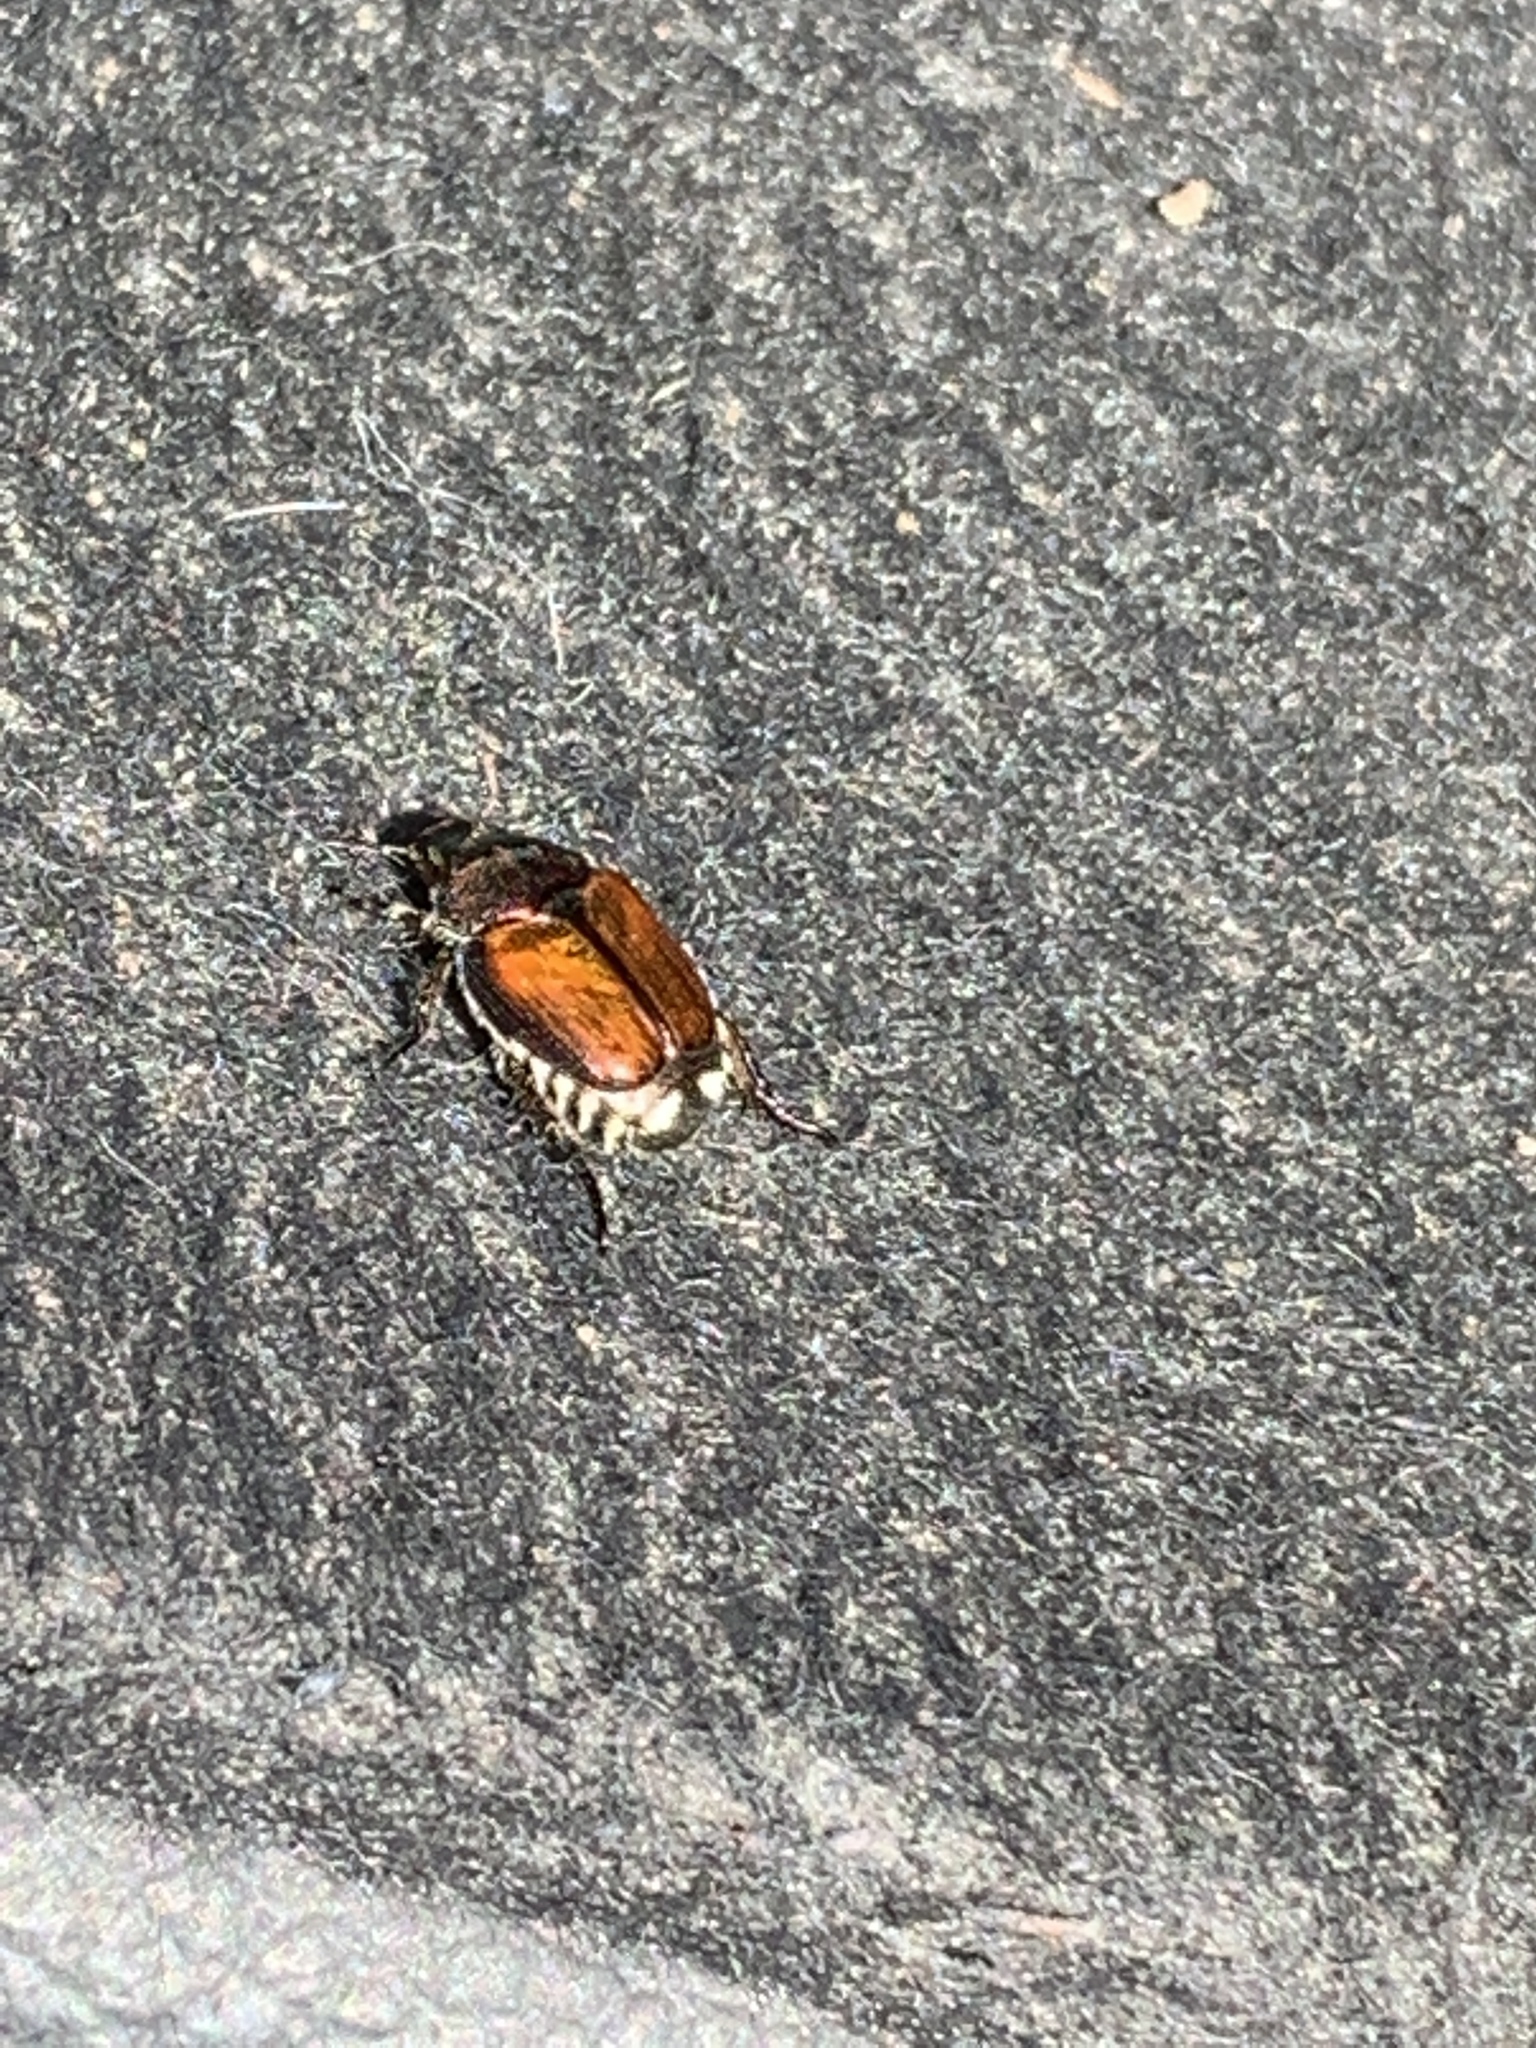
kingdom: Animalia
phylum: Arthropoda
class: Insecta
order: Coleoptera
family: Scarabaeidae
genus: Popillia
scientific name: Popillia japonica
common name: Japanese beetle
